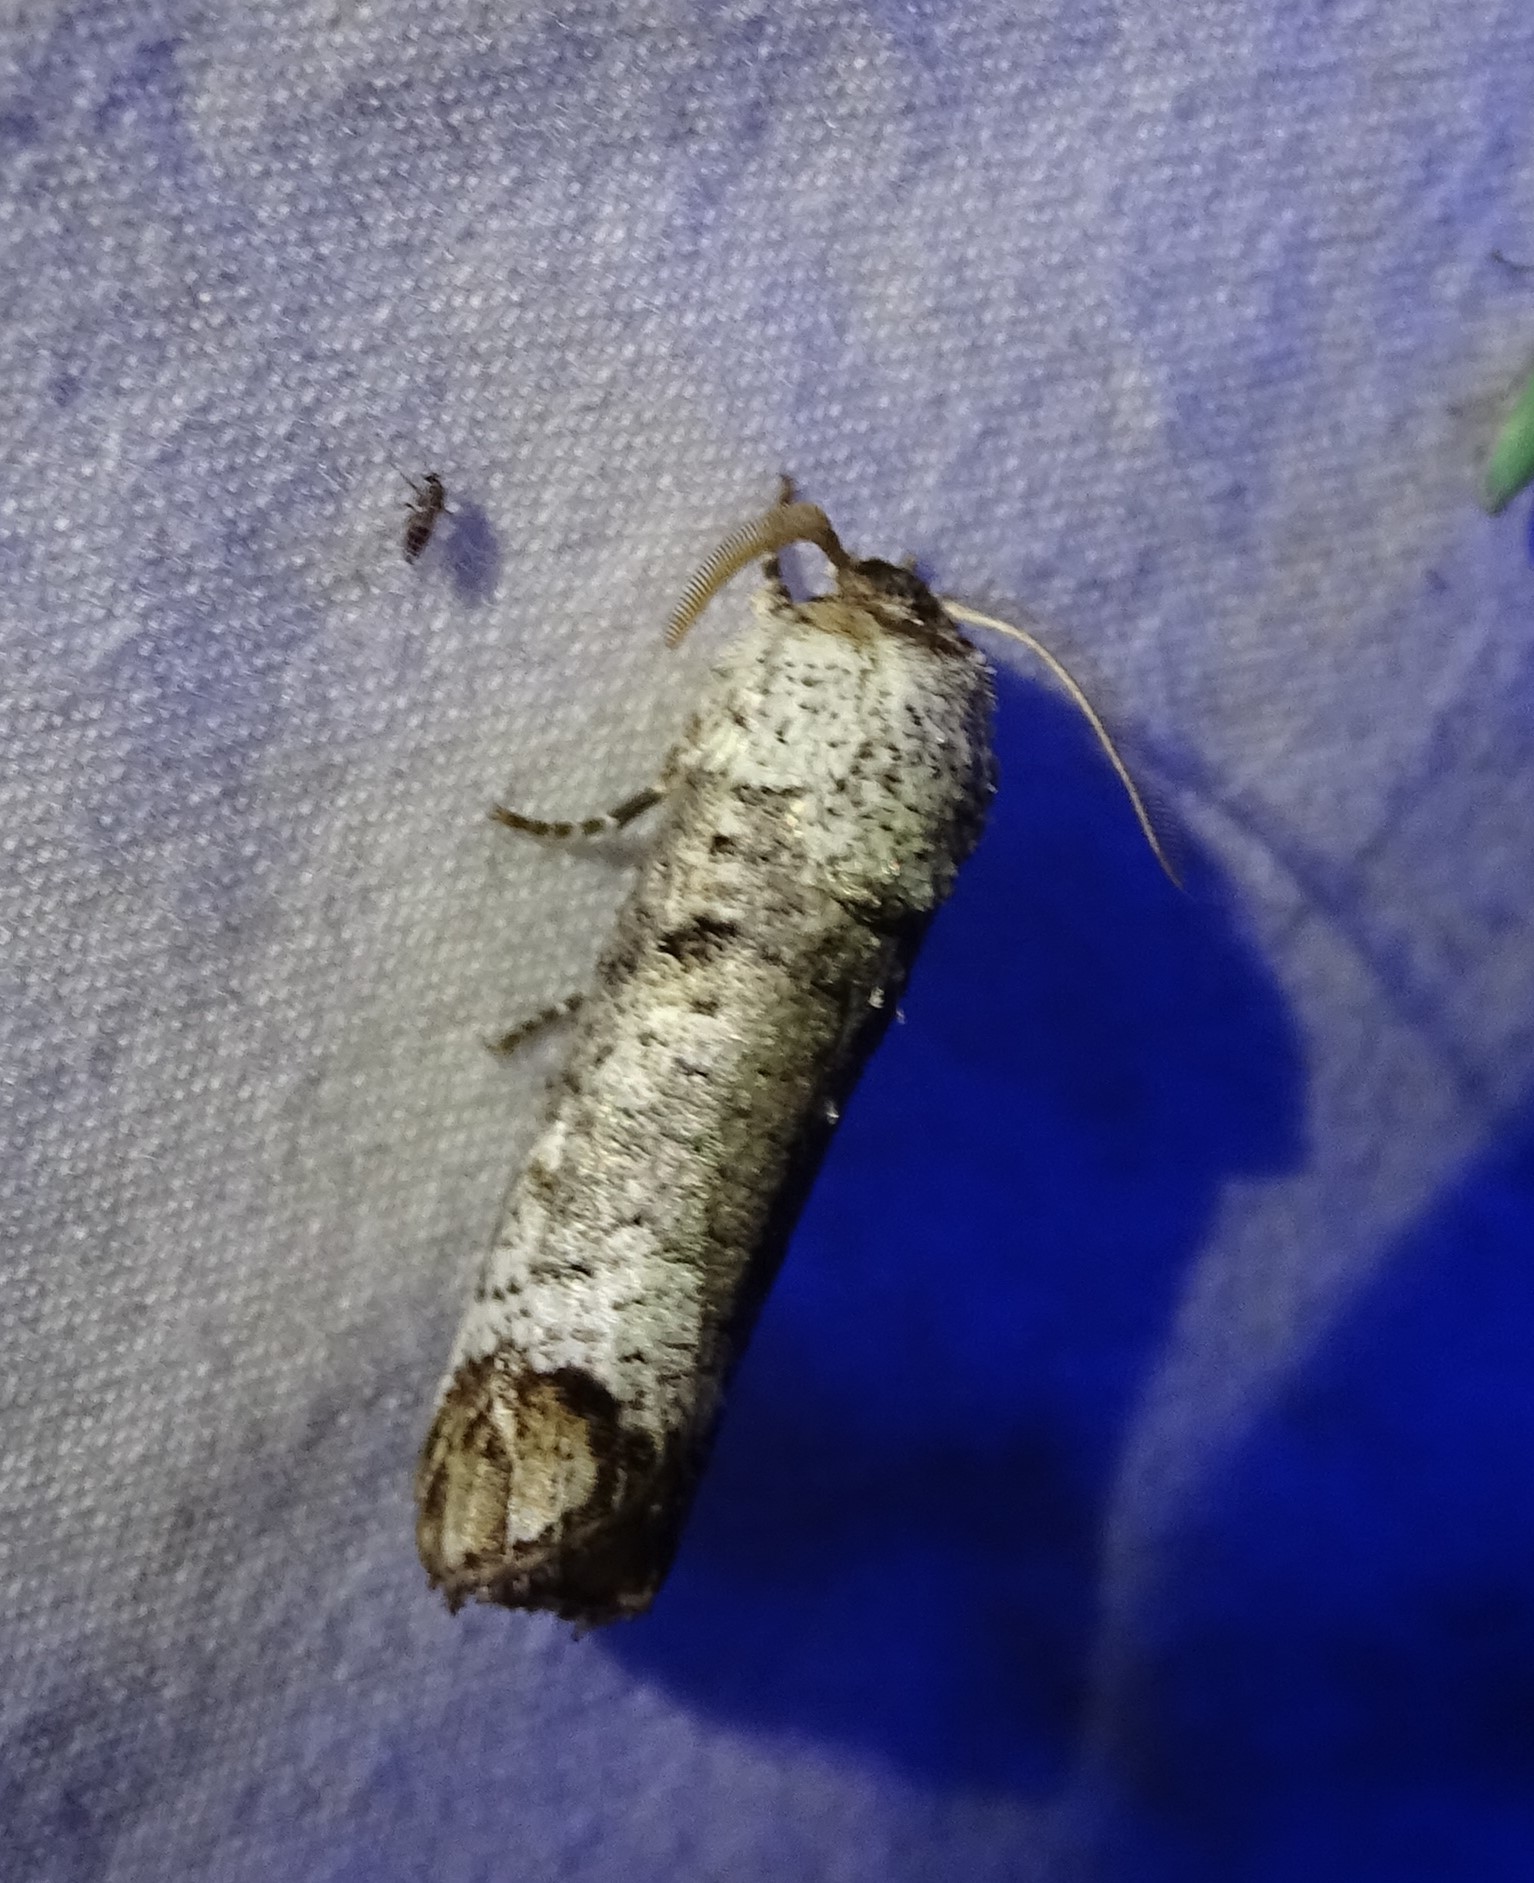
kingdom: Animalia
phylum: Arthropoda
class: Insecta
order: Lepidoptera
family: Cossidae
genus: Cossula
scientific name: Cossula magnifica
